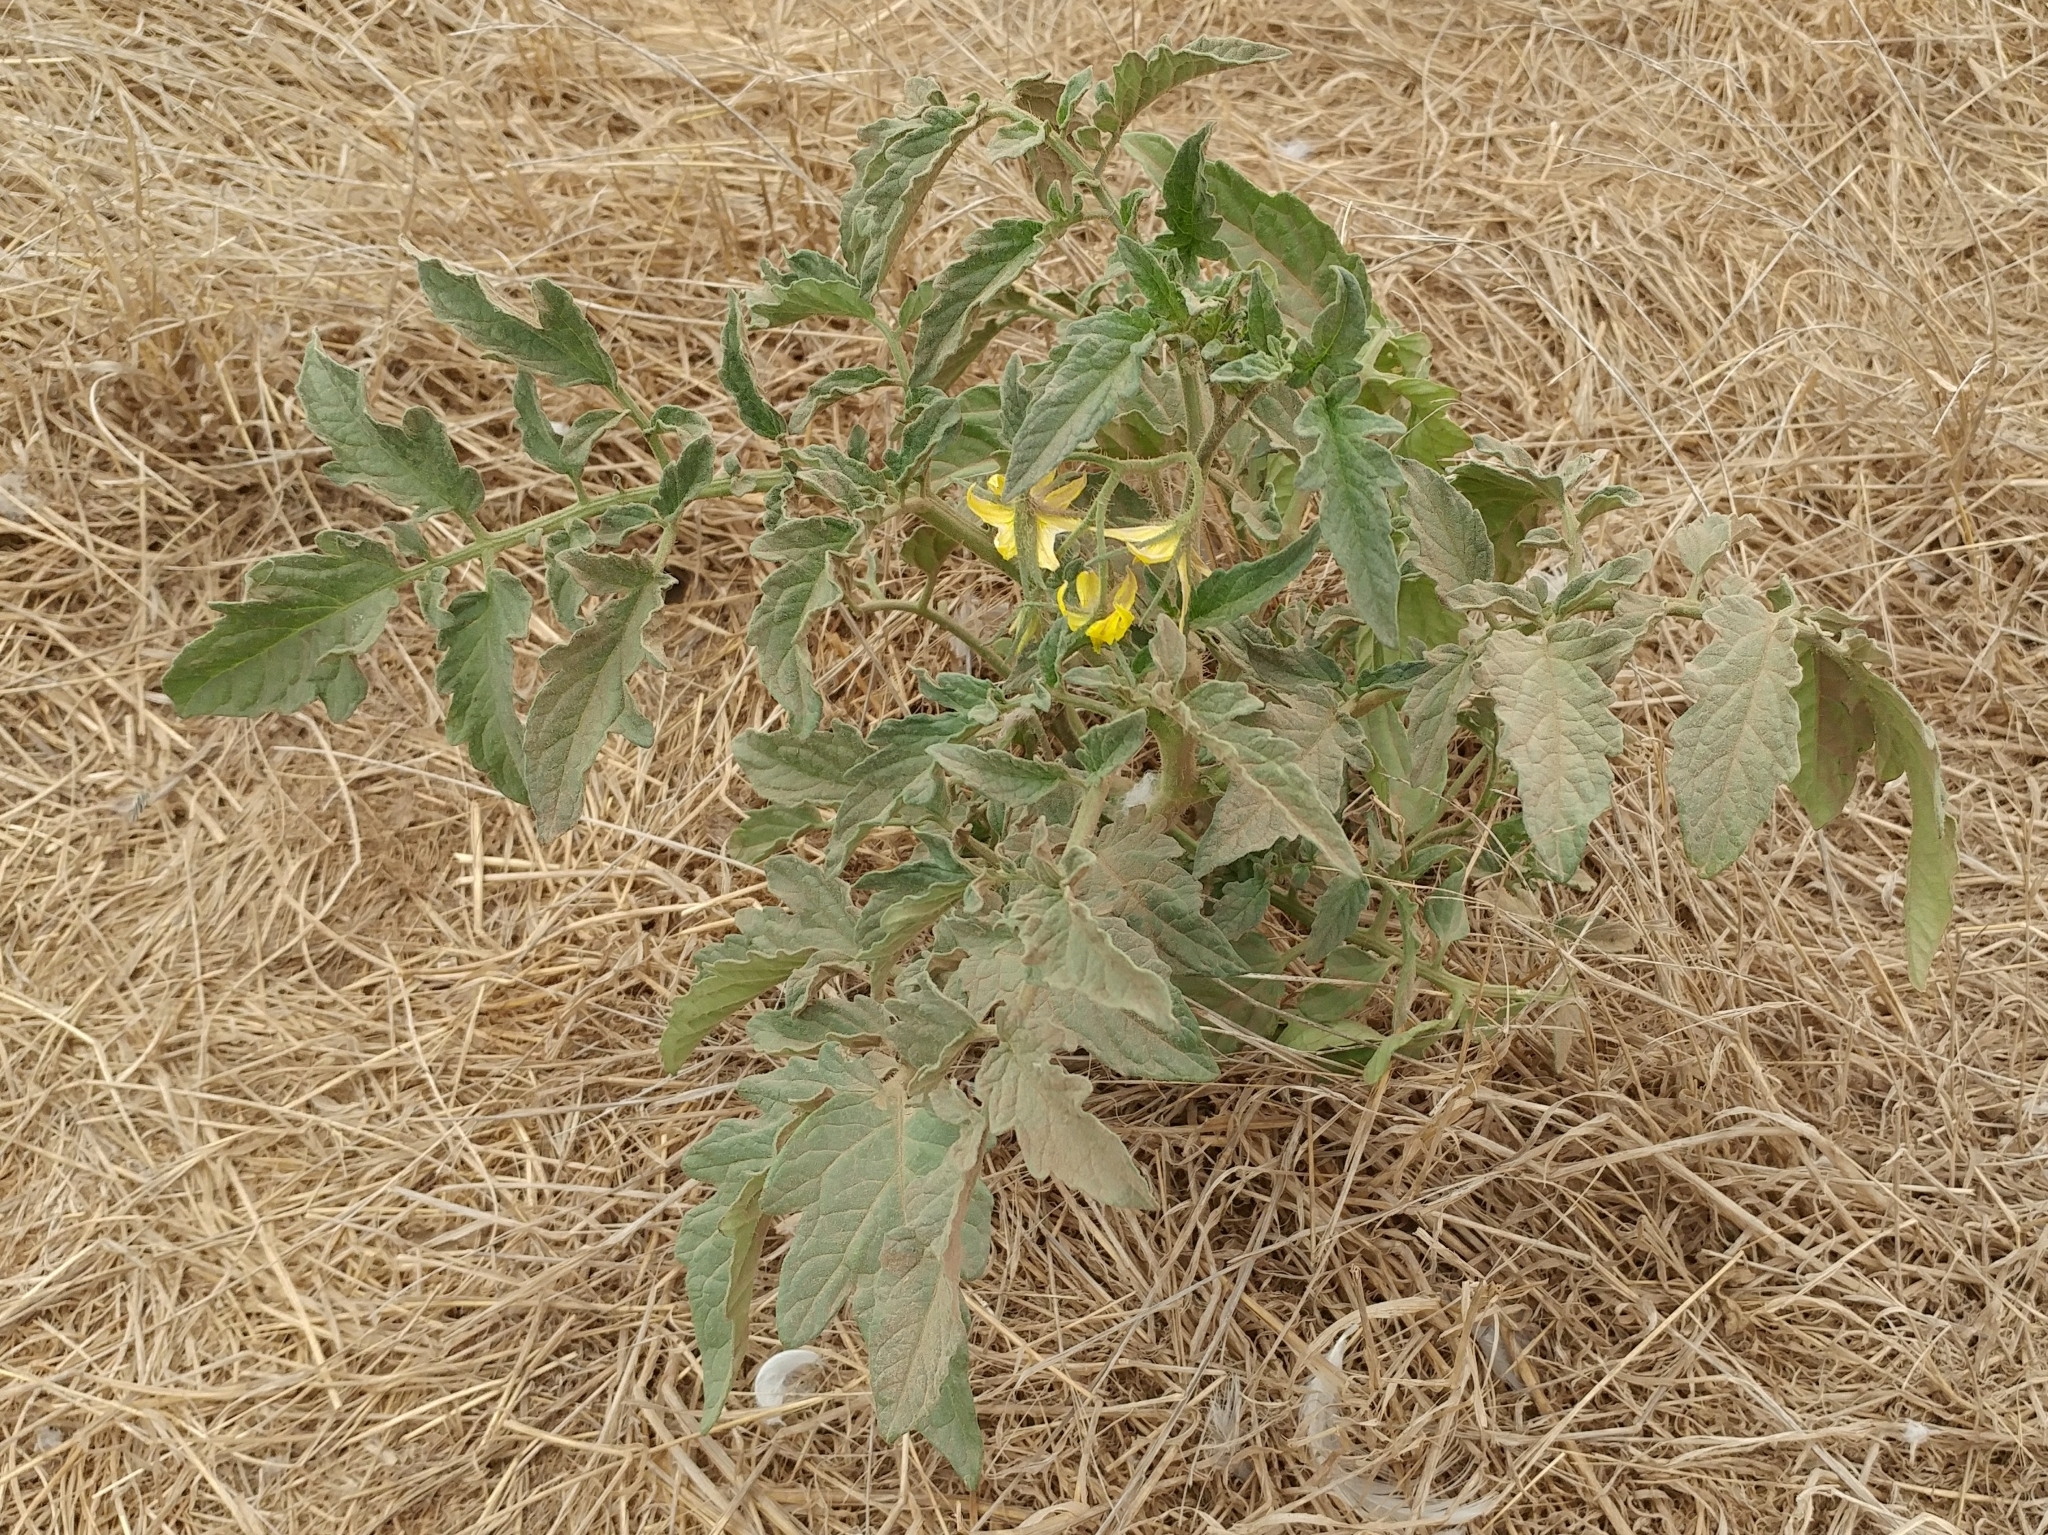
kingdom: Plantae
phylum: Tracheophyta
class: Magnoliopsida
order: Solanales
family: Solanaceae
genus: Solanum
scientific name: Solanum lycopersicum
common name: Garden tomato
